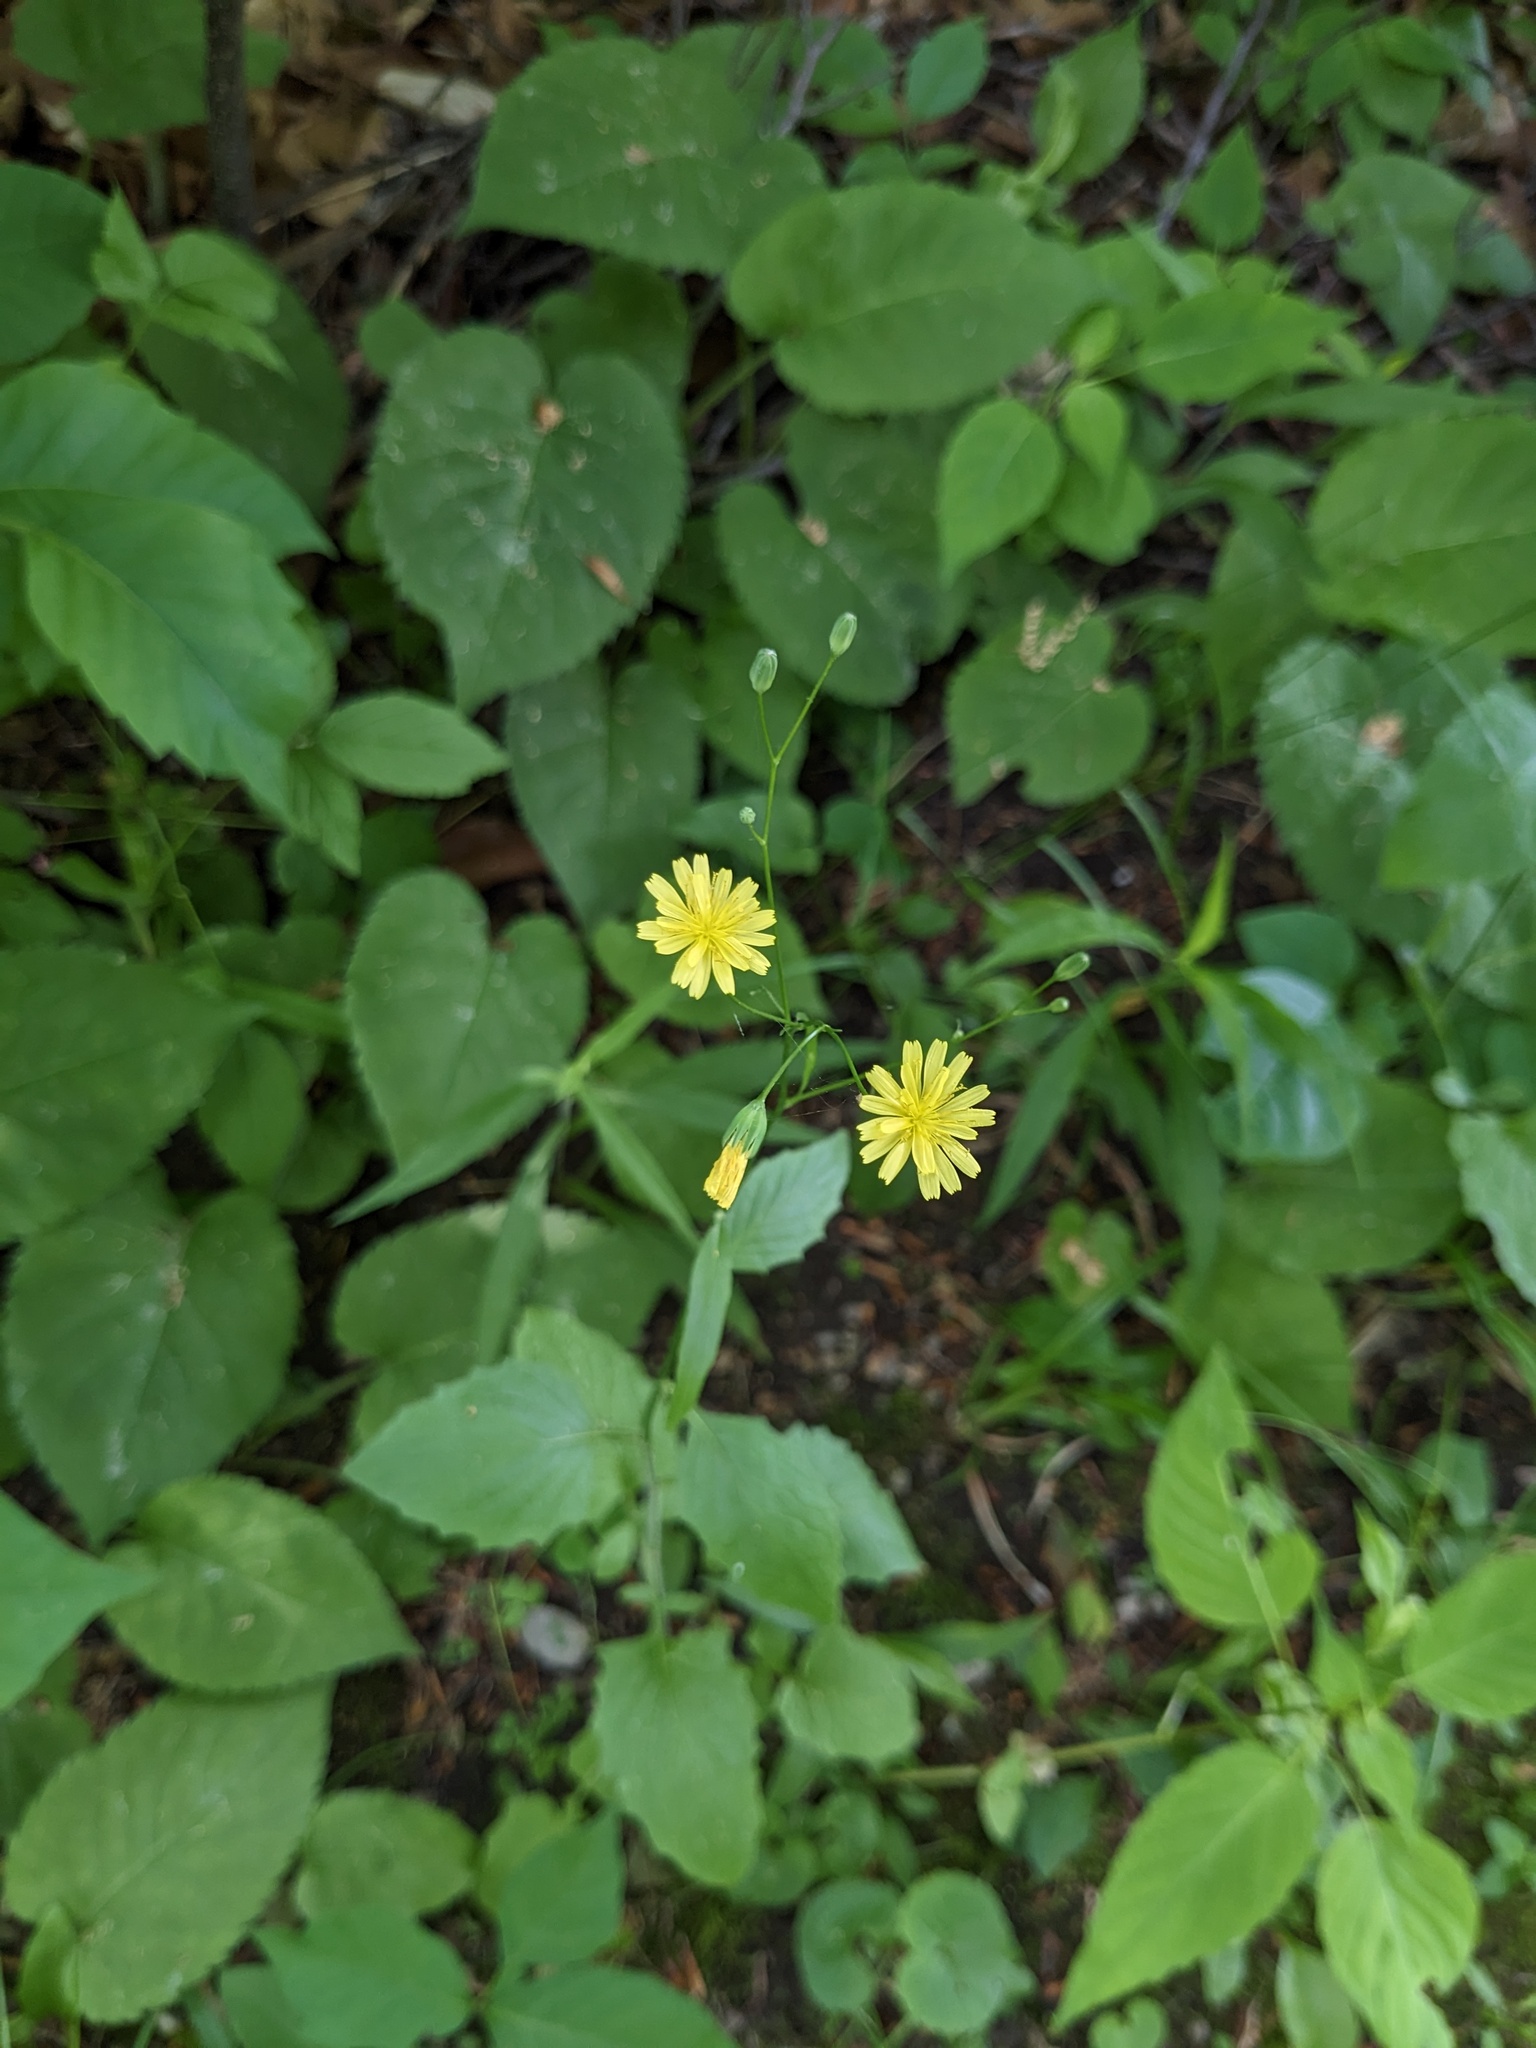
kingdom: Plantae
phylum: Tracheophyta
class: Magnoliopsida
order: Asterales
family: Asteraceae
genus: Lapsana
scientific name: Lapsana communis
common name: Nipplewort
